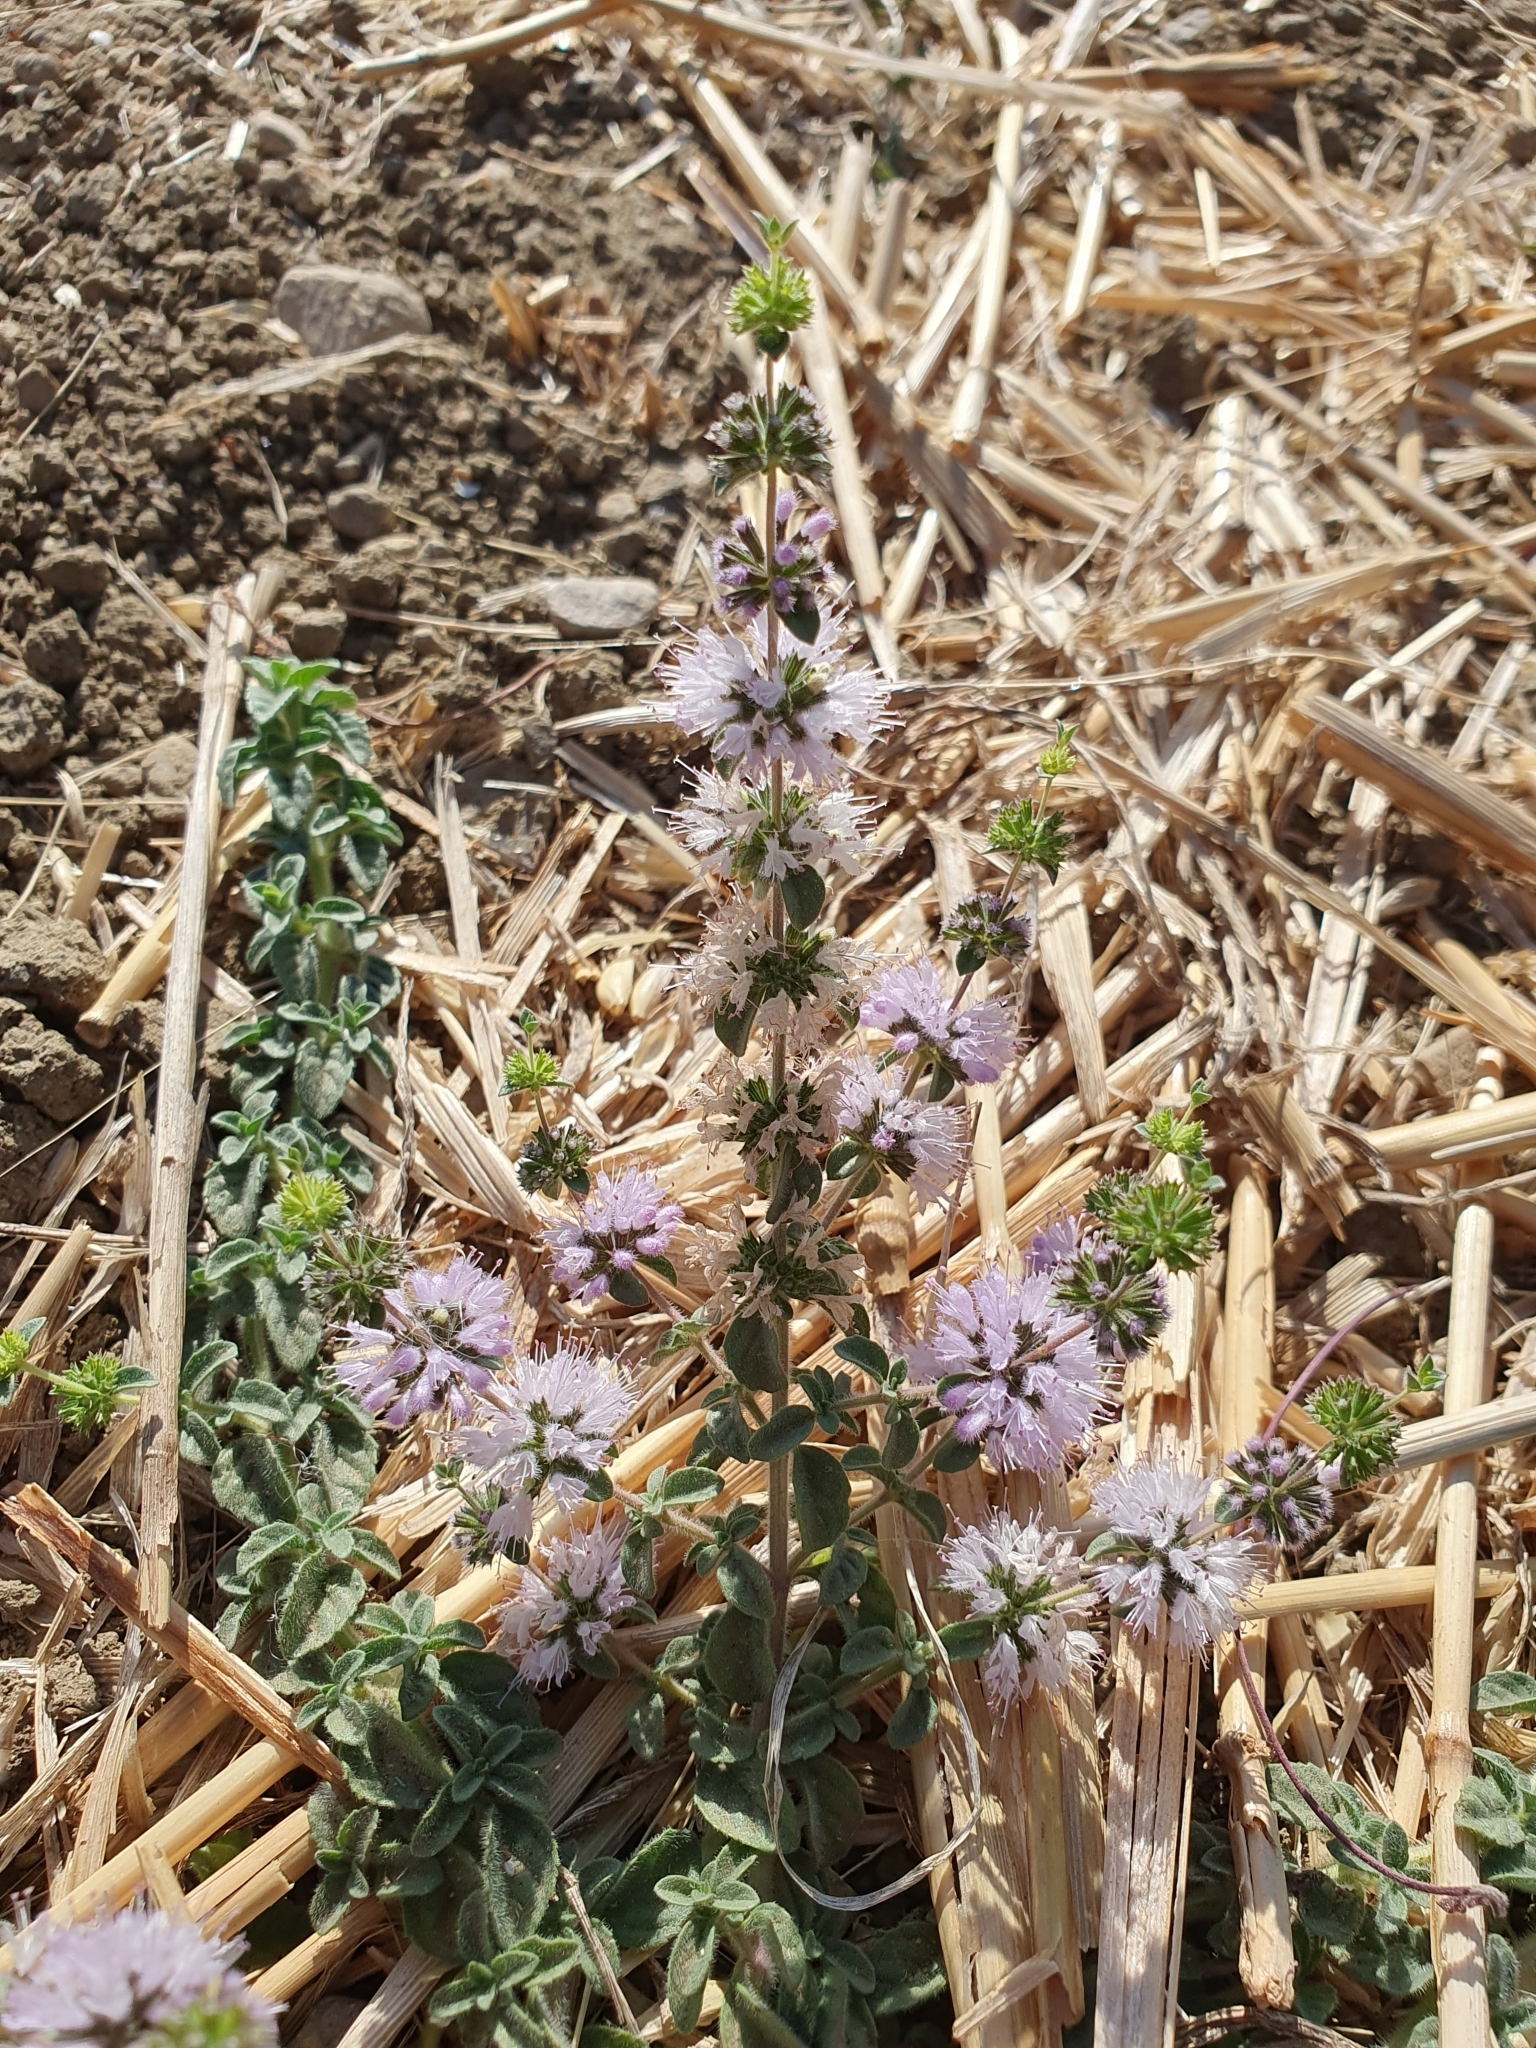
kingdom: Plantae
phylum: Tracheophyta
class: Magnoliopsida
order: Lamiales
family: Lamiaceae
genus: Mentha
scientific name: Mentha pulegium
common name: Pennyroyal
